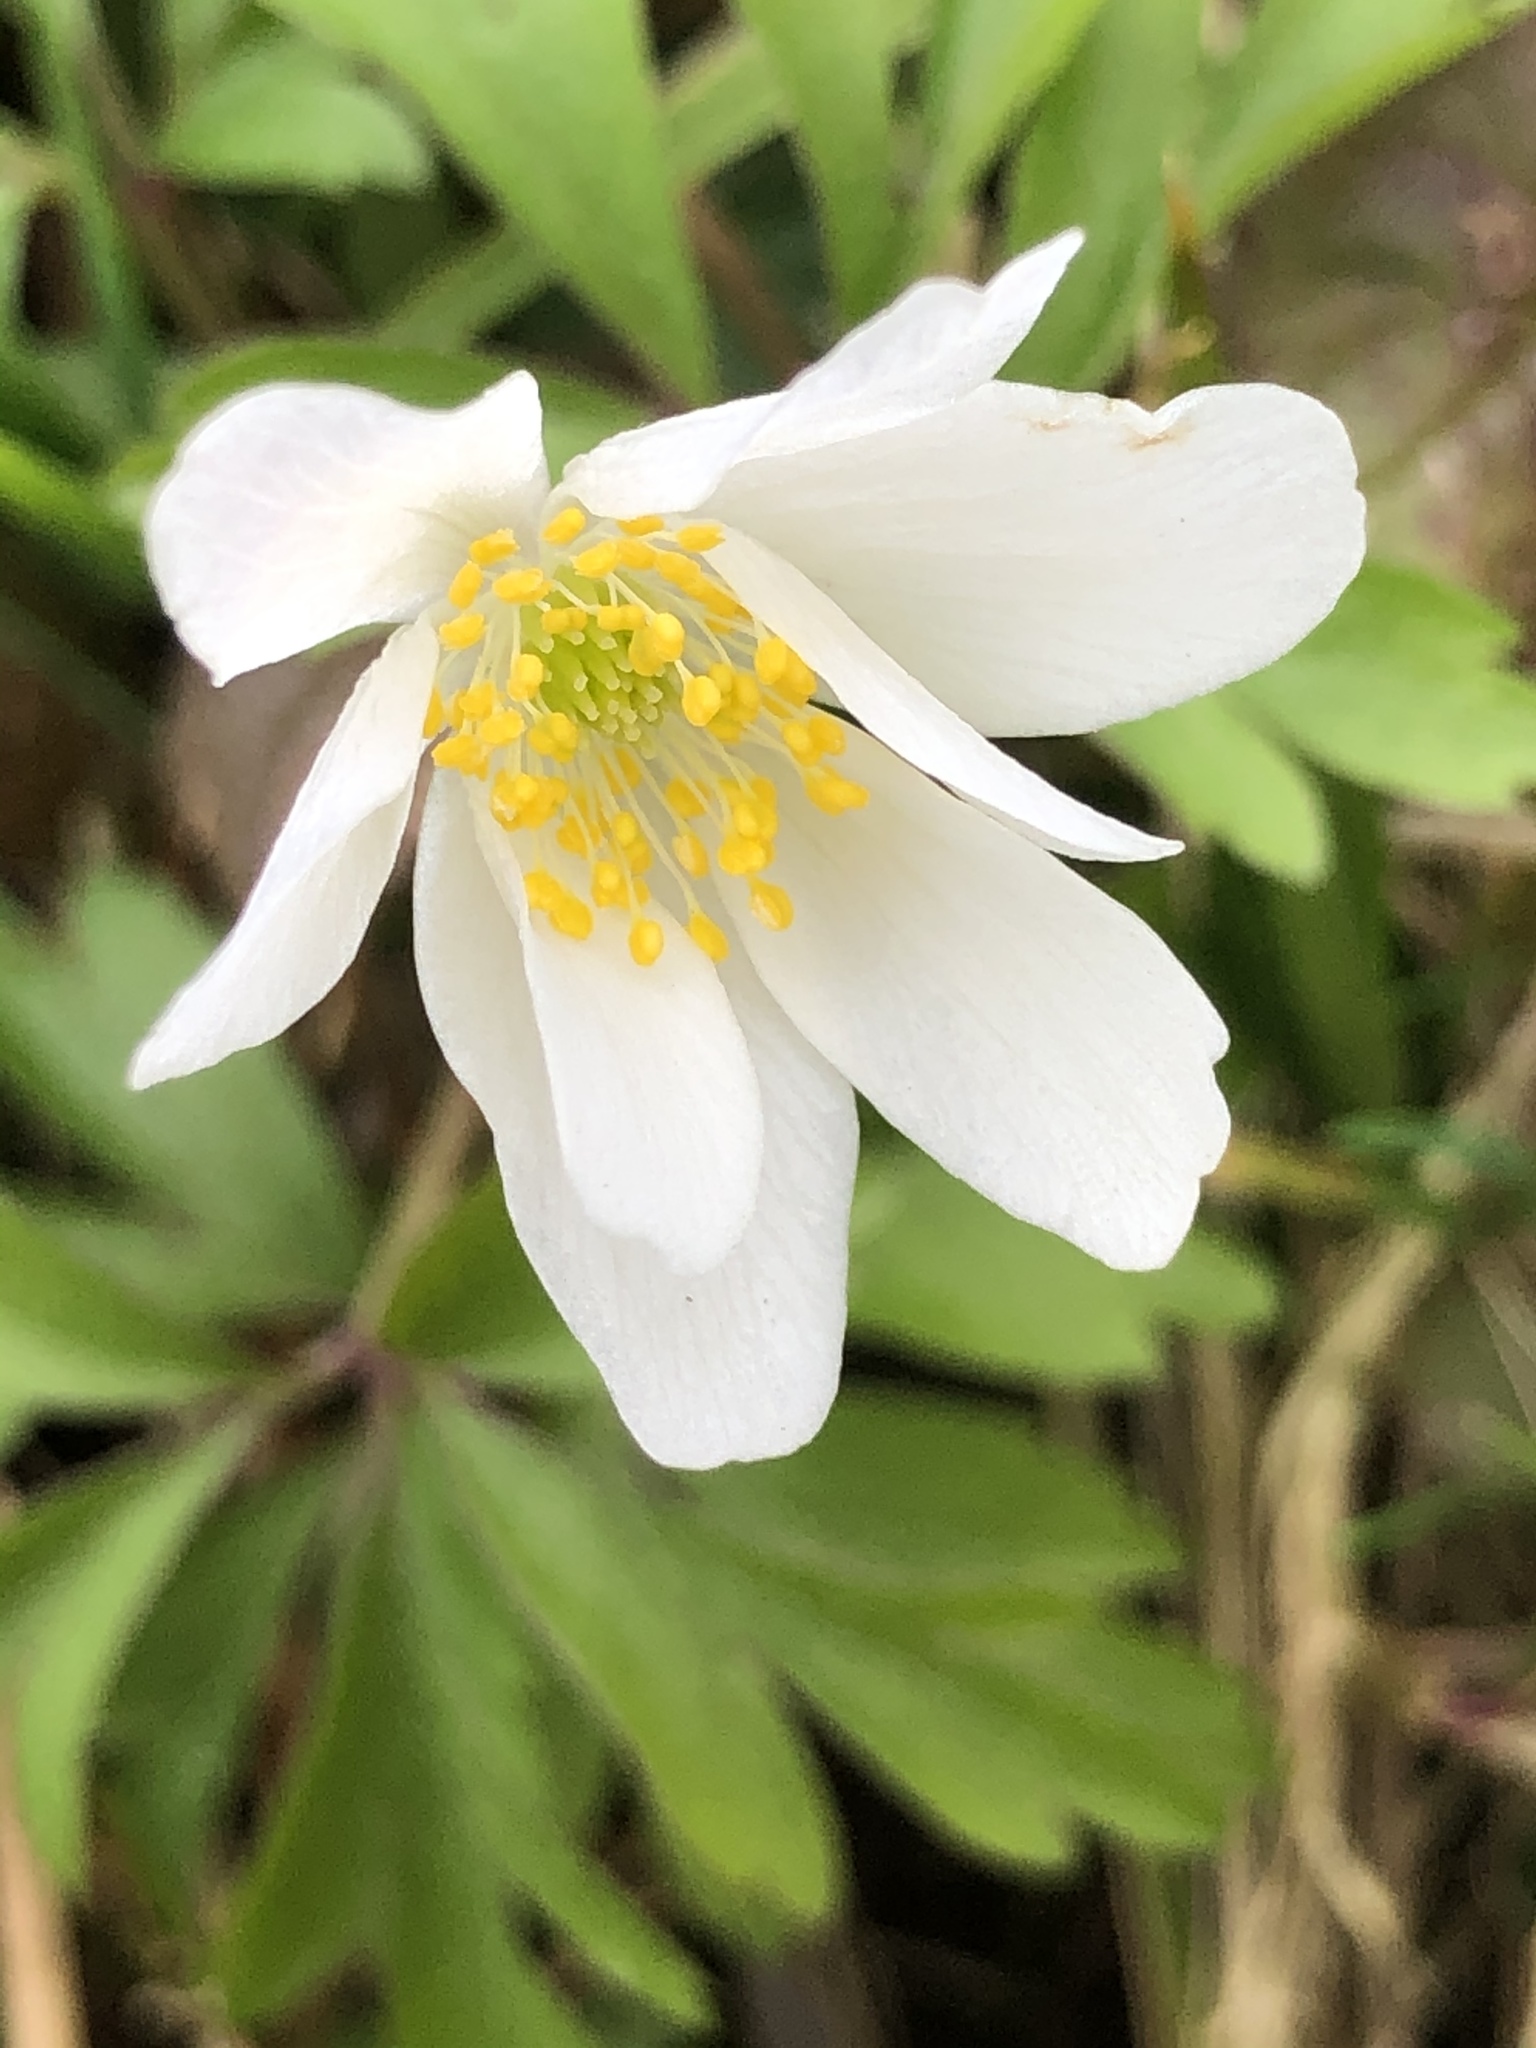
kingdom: Plantae
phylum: Tracheophyta
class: Magnoliopsida
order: Ranunculales
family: Ranunculaceae
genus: Anemone
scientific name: Anemone nemorosa
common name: Wood anemone
